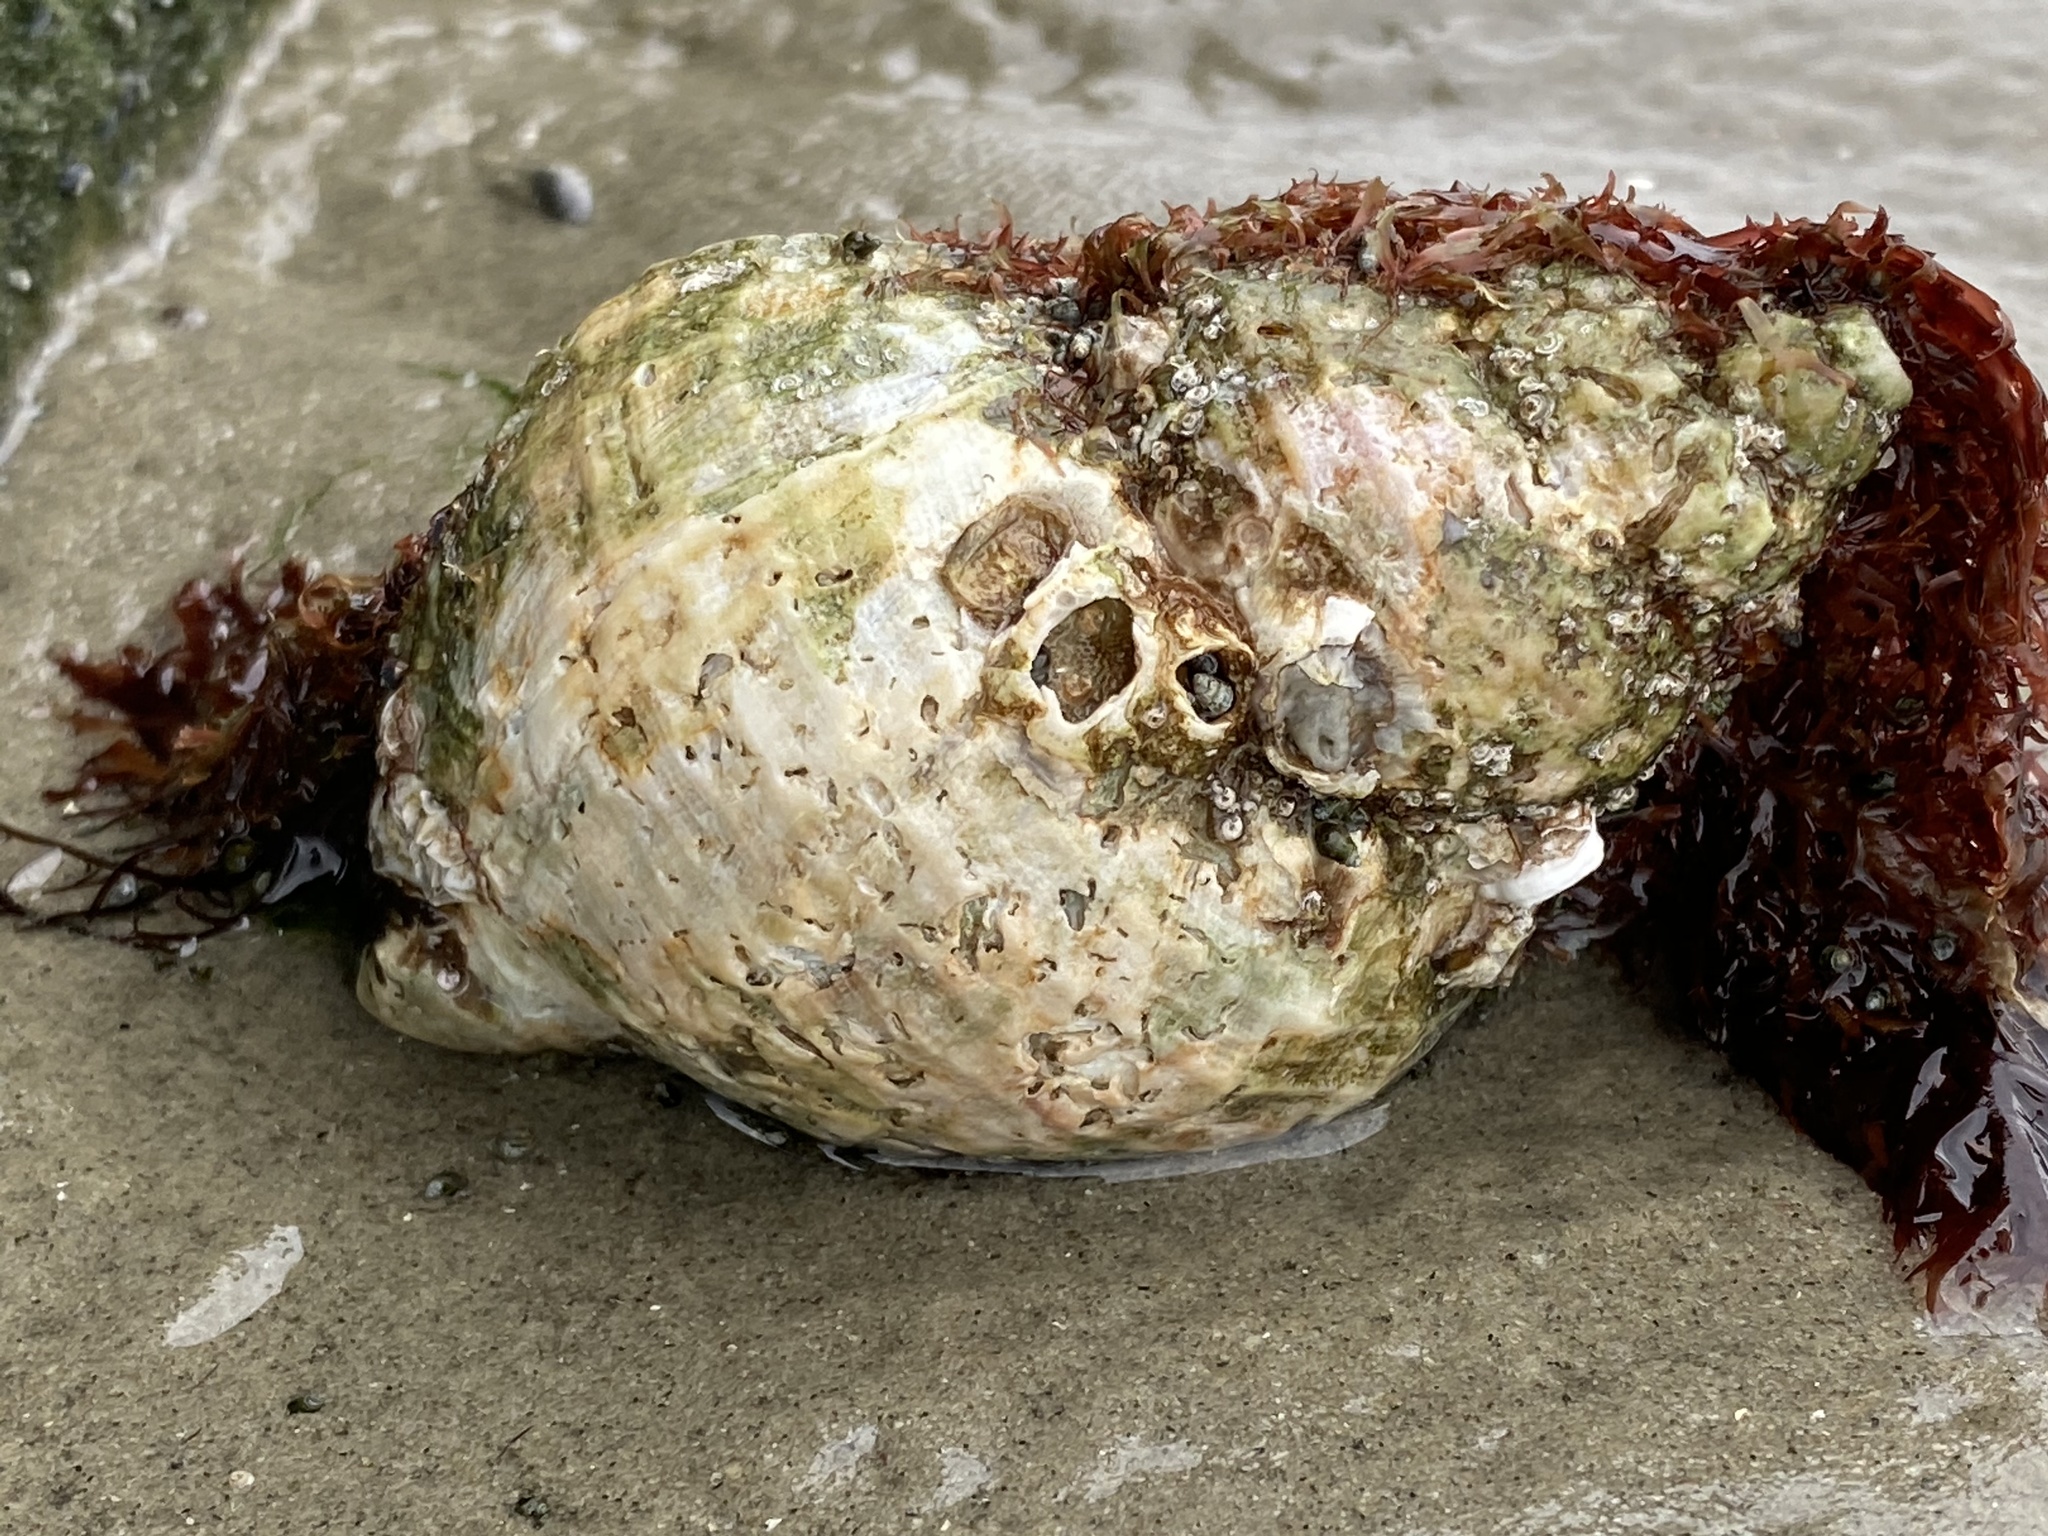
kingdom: Animalia
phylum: Mollusca
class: Gastropoda
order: Neogastropoda
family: Buccinidae
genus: Buccinum
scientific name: Buccinum undatum
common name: Common whelk
